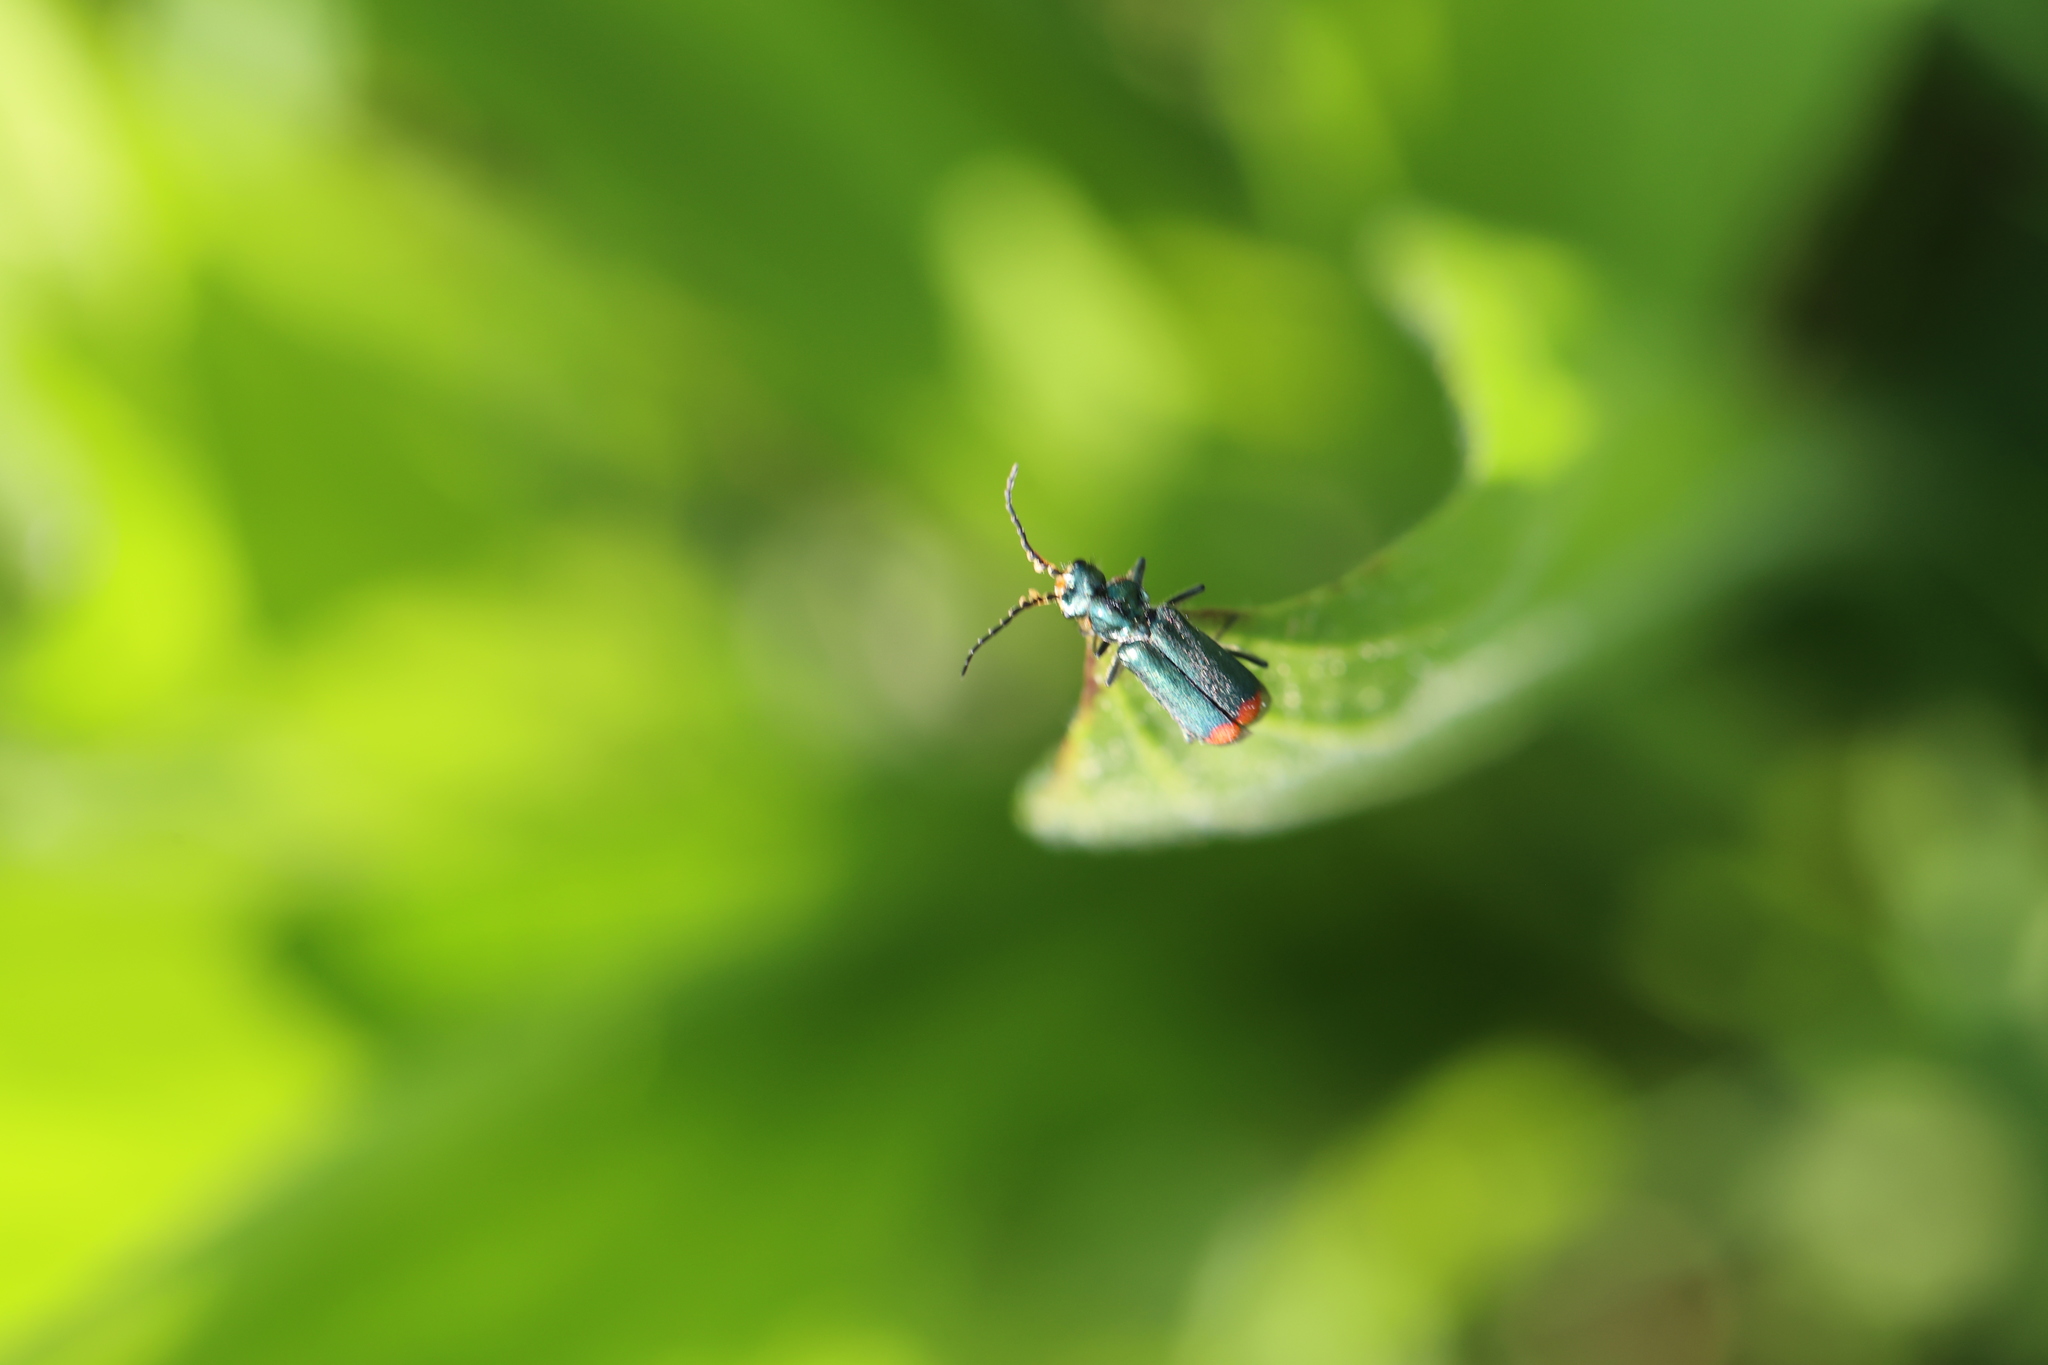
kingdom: Animalia
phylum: Arthropoda
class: Insecta
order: Coleoptera
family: Melyridae
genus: Malachius
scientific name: Malachius bipustulatus
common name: Malachite beetle
